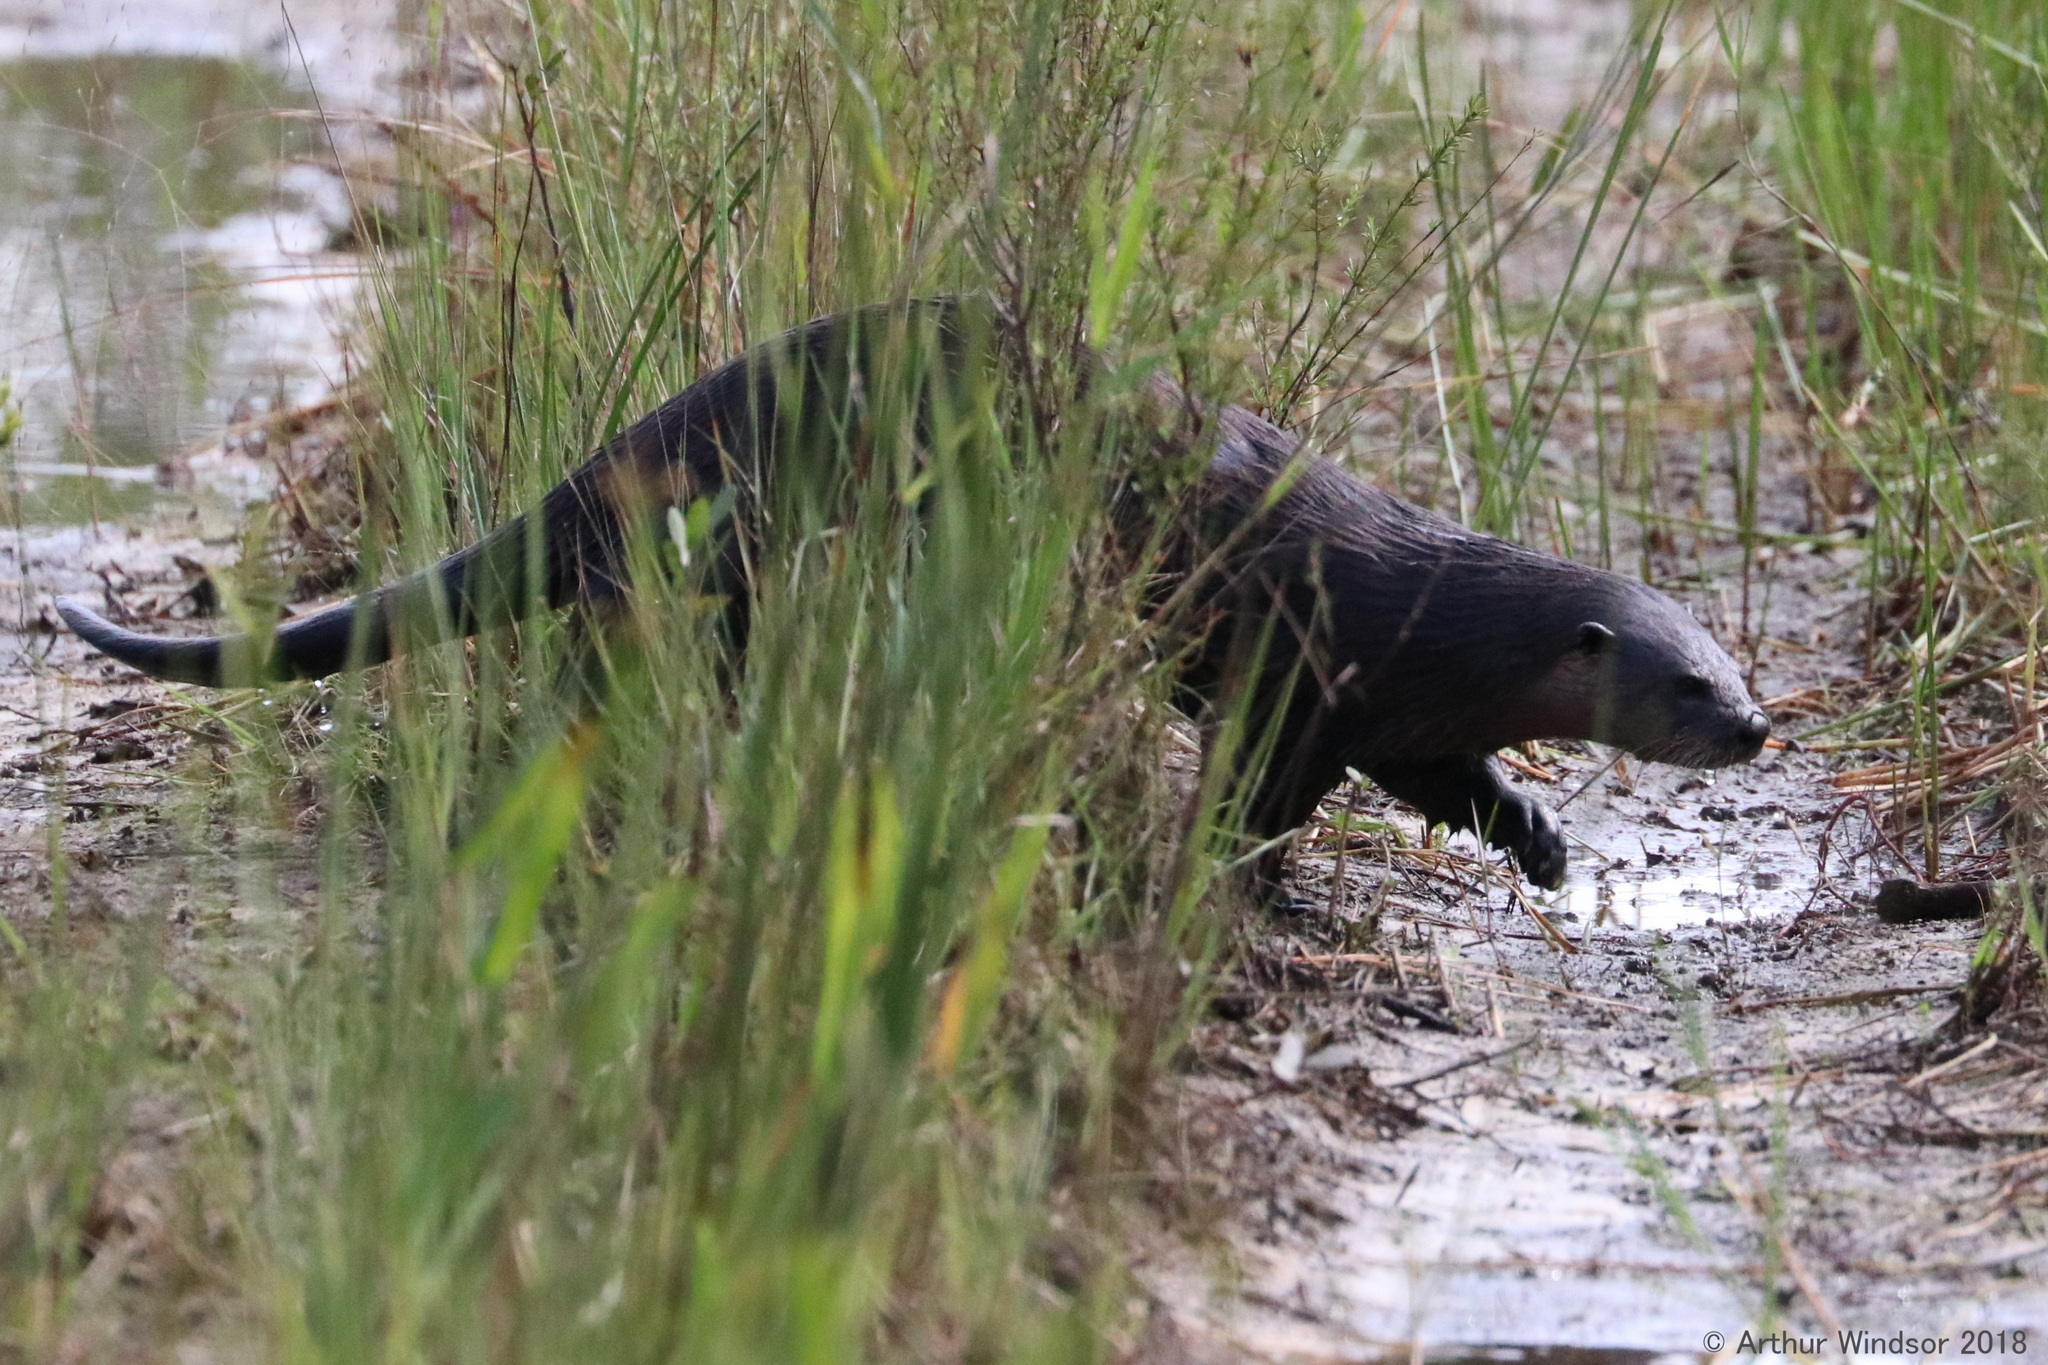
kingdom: Animalia
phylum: Chordata
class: Mammalia
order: Carnivora
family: Mustelidae
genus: Lontra
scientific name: Lontra canadensis
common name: North american river otter
